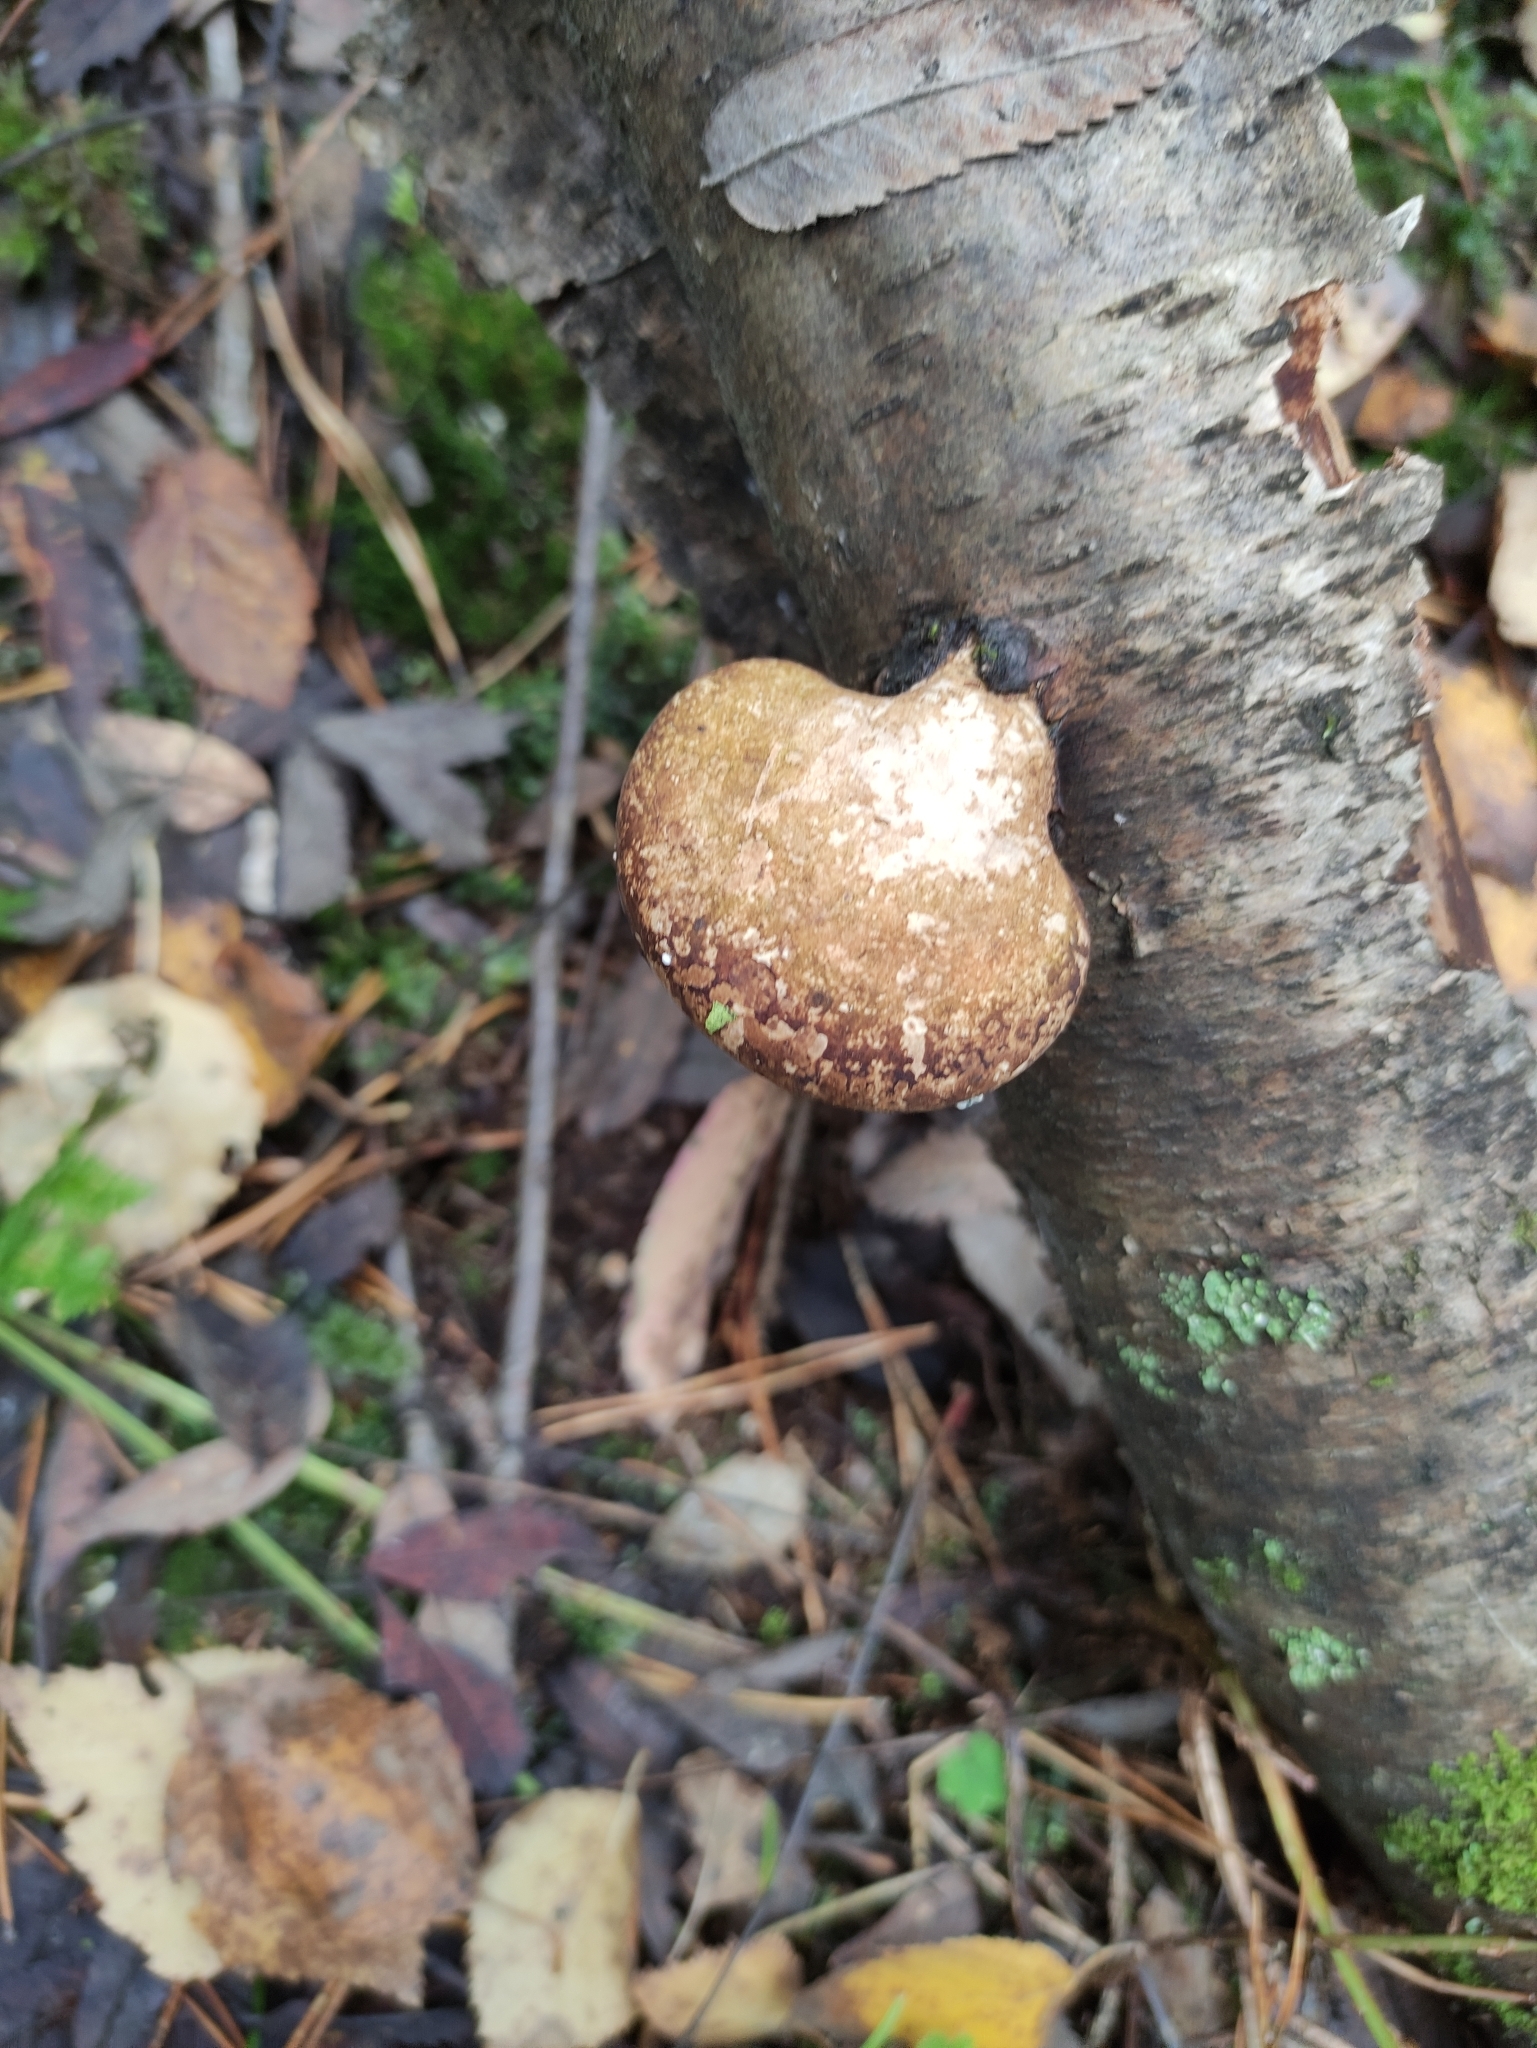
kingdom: Fungi
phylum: Basidiomycota
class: Agaricomycetes
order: Polyporales
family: Fomitopsidaceae
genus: Fomitopsis
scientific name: Fomitopsis betulina
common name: Birch polypore
